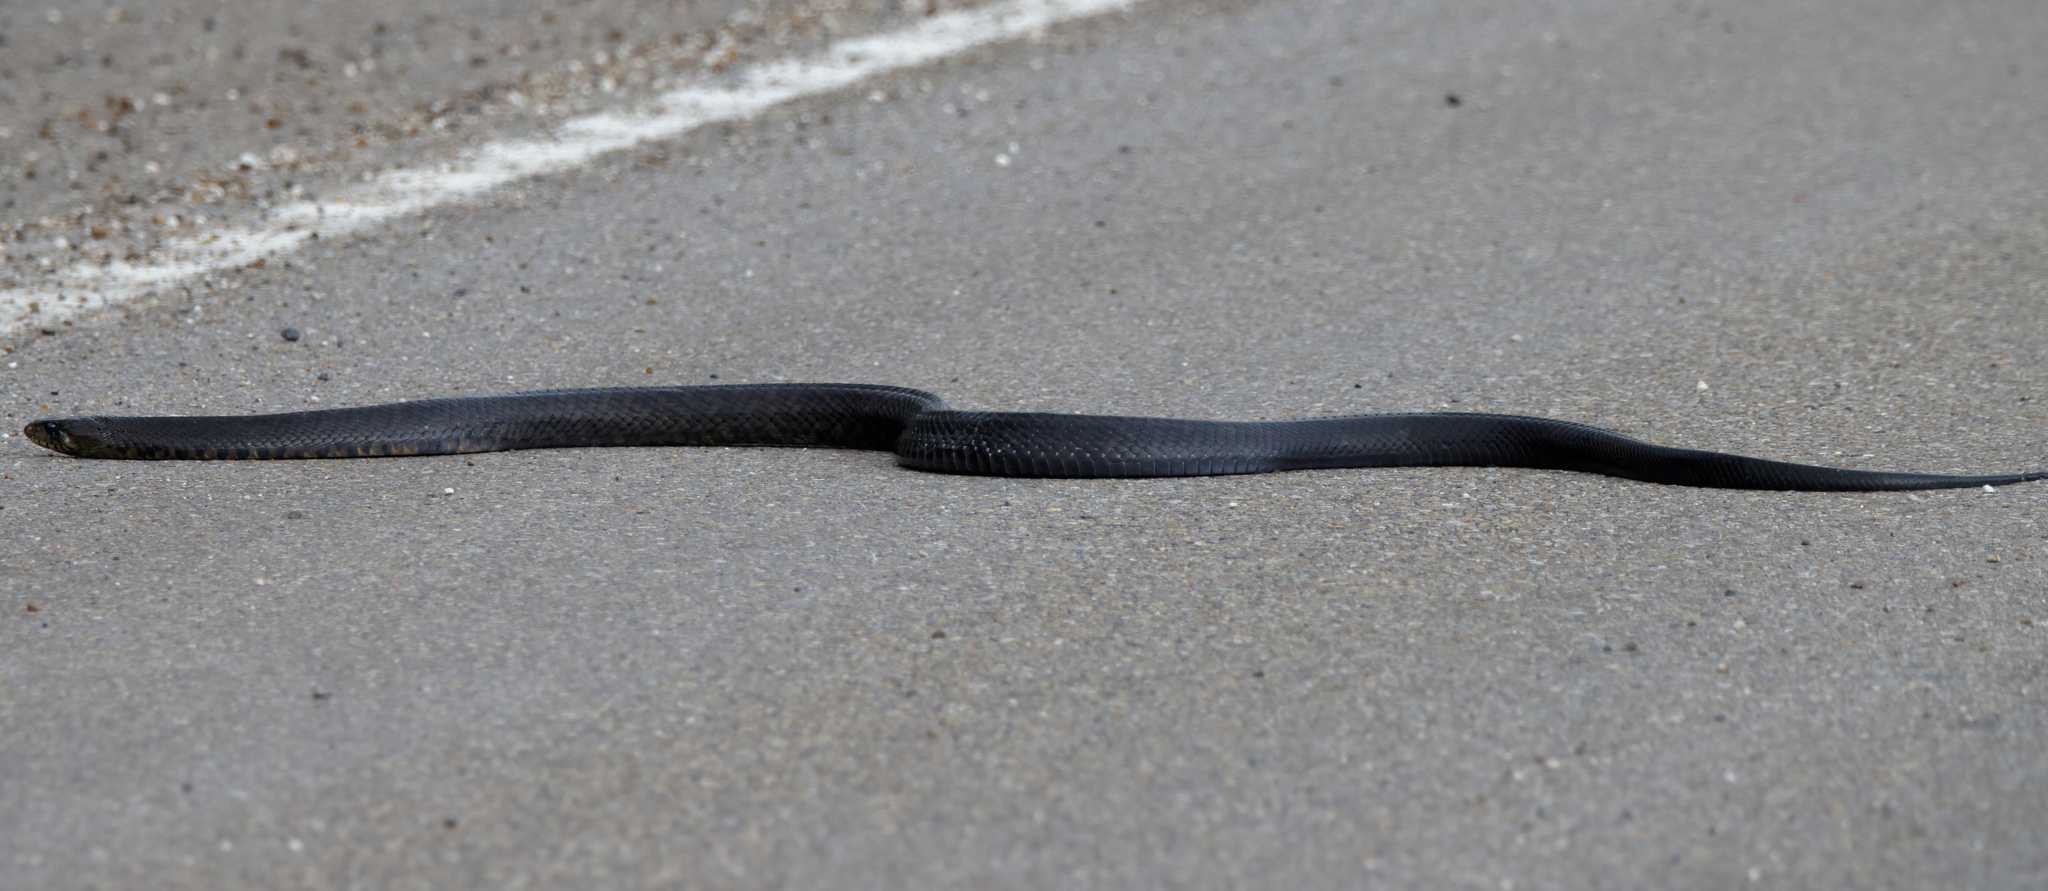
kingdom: Animalia
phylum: Chordata
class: Squamata
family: Colubridae
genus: Drymarchon
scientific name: Drymarchon melanurus
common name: Central american indigo snake
